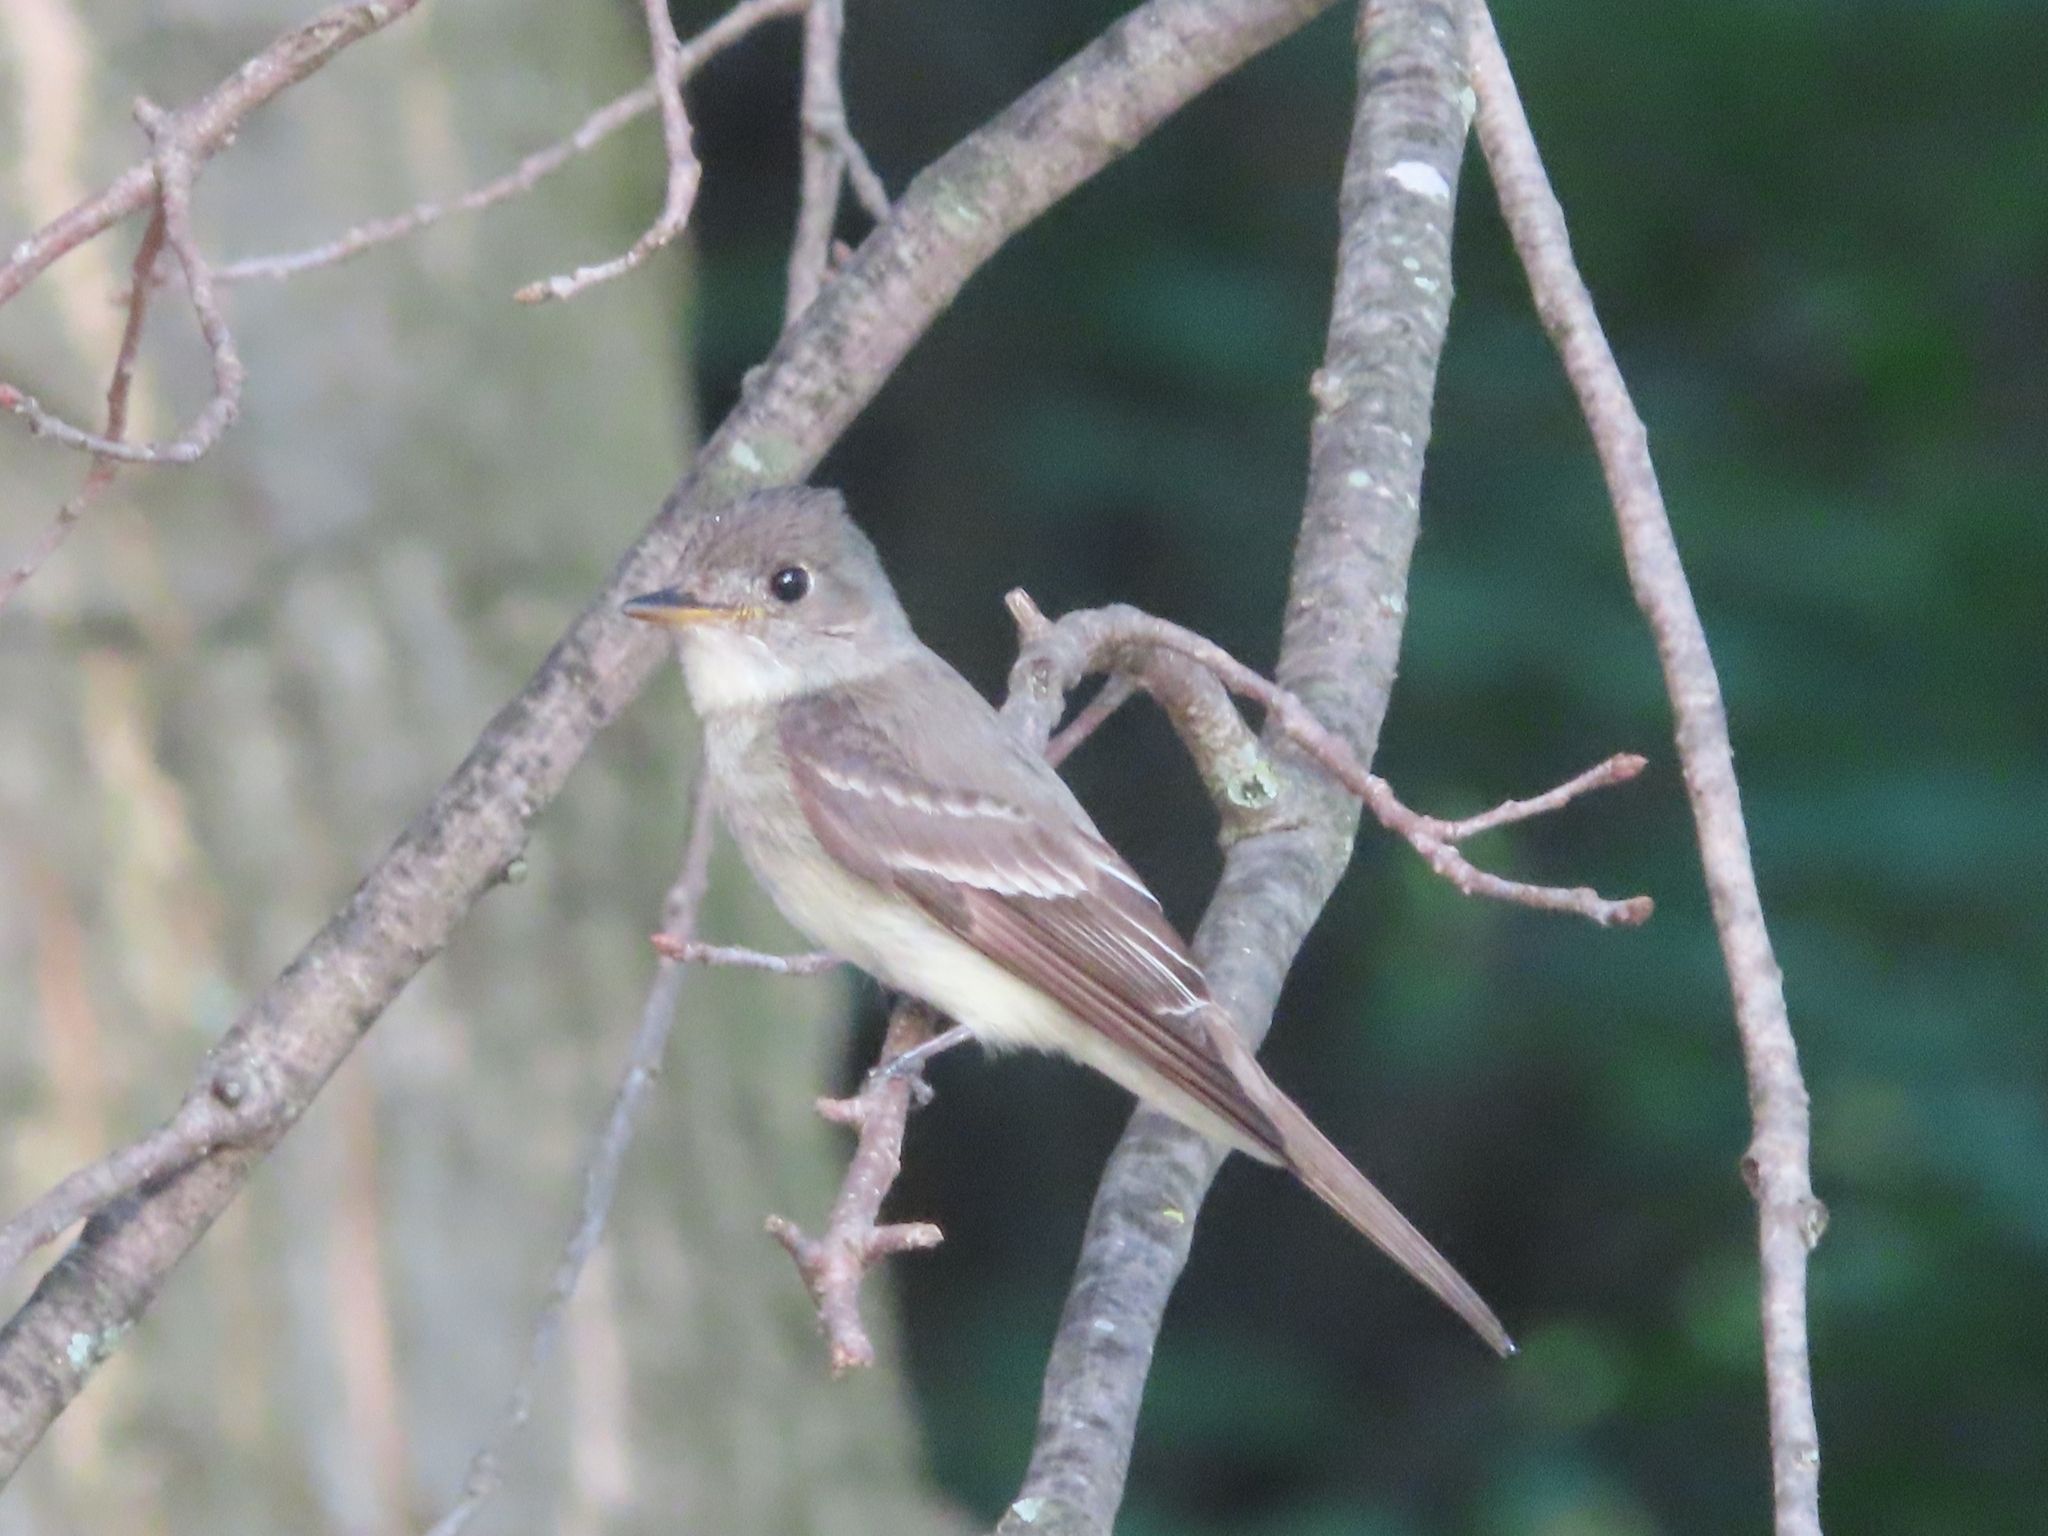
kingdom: Animalia
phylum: Chordata
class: Aves
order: Passeriformes
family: Tyrannidae
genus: Contopus
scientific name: Contopus virens
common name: Eastern wood-pewee
